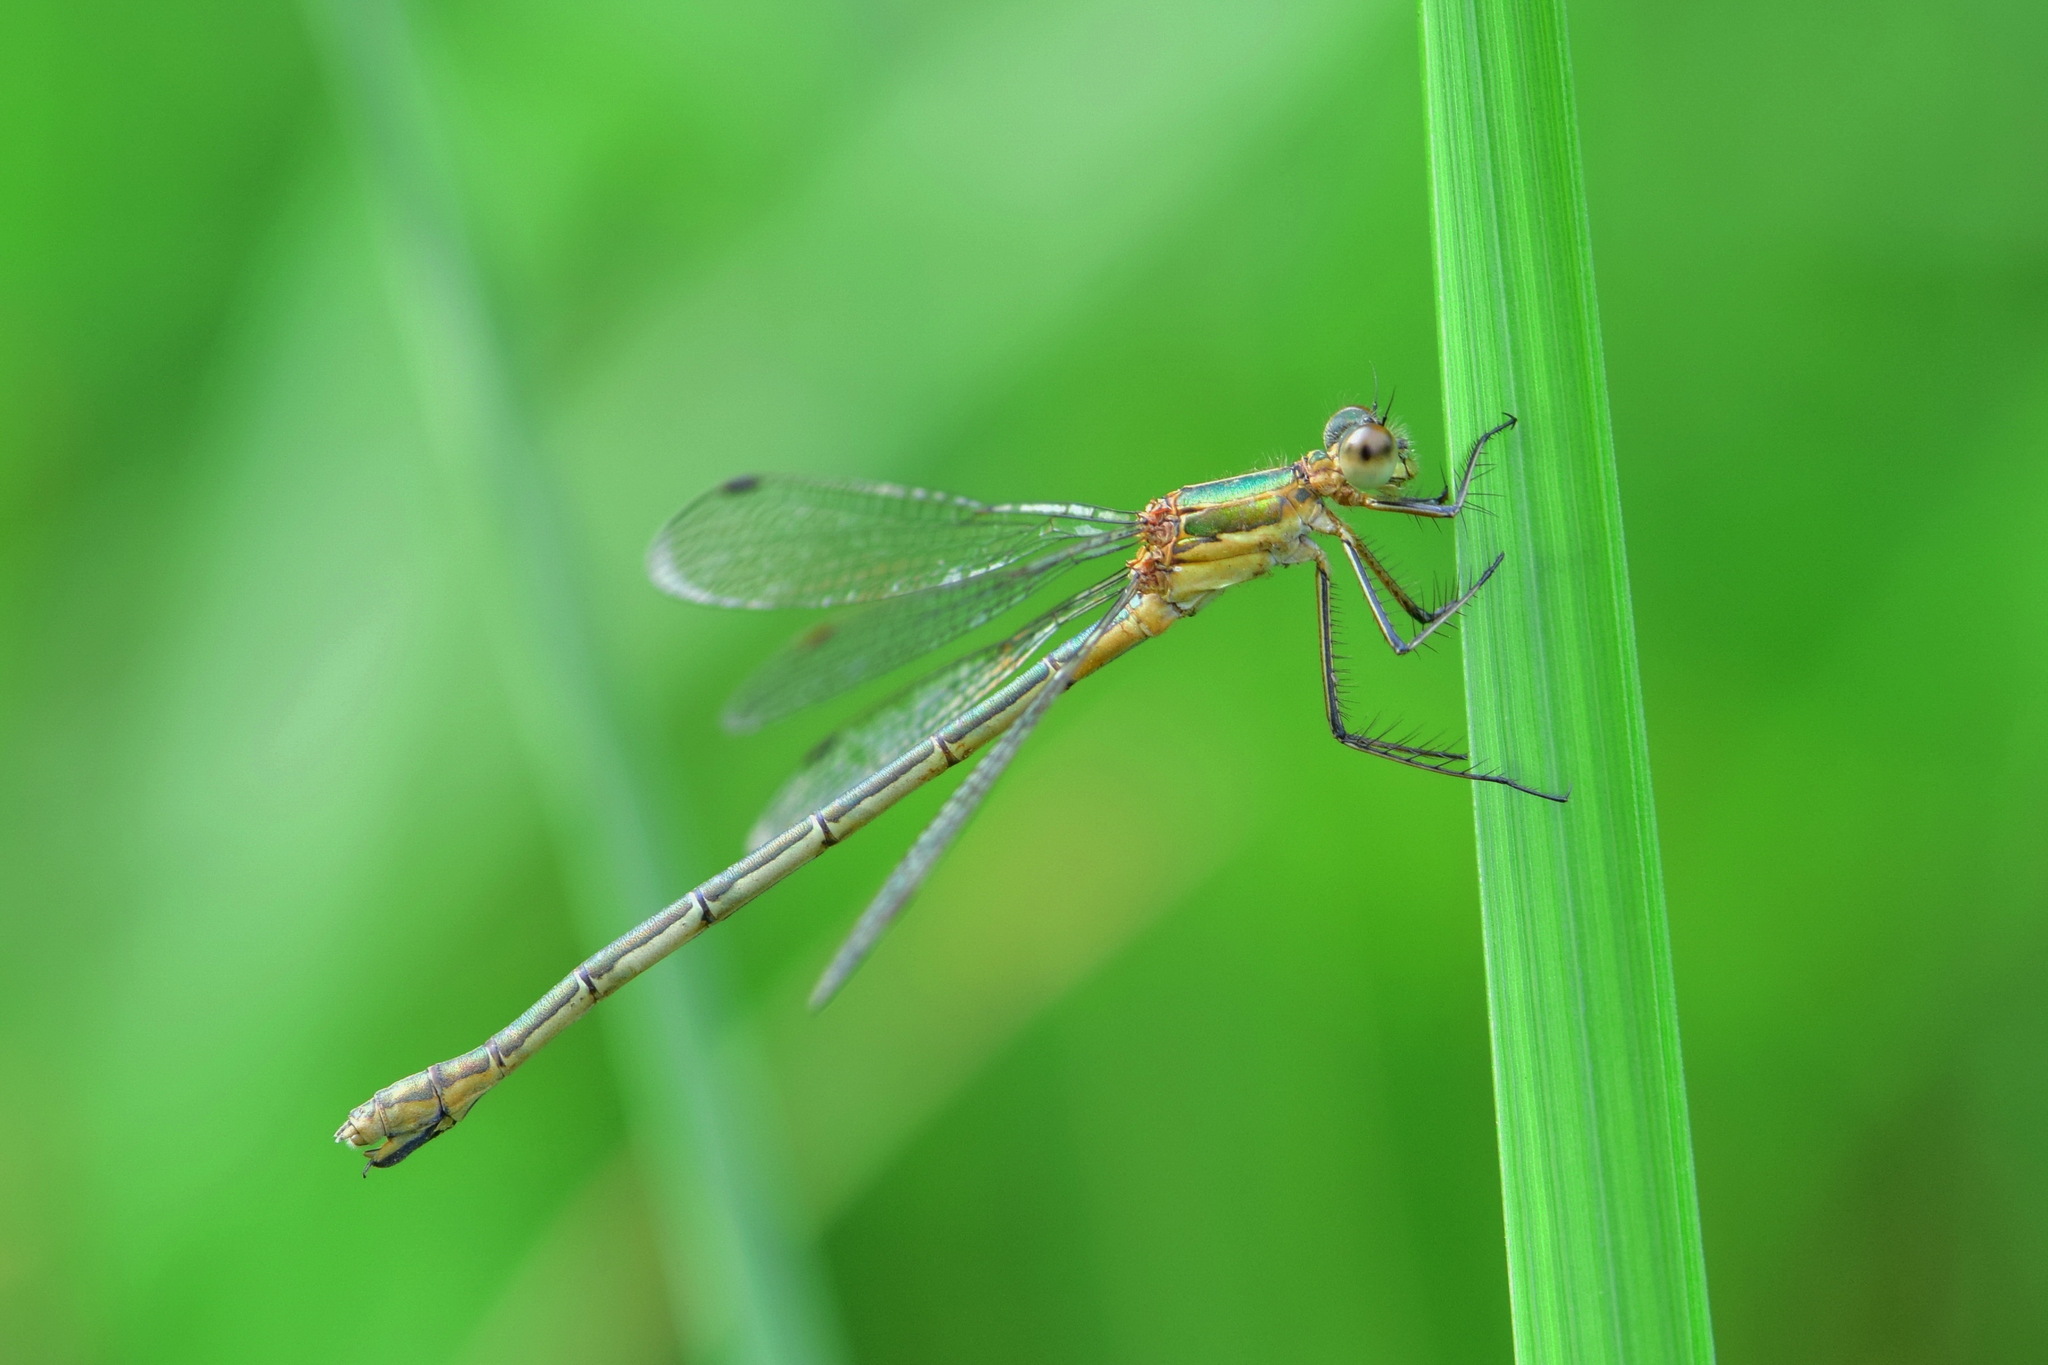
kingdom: Animalia
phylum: Arthropoda
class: Insecta
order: Odonata
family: Lestidae
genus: Lestes
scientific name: Lestes dryas
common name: Scarce emerald damselfly
